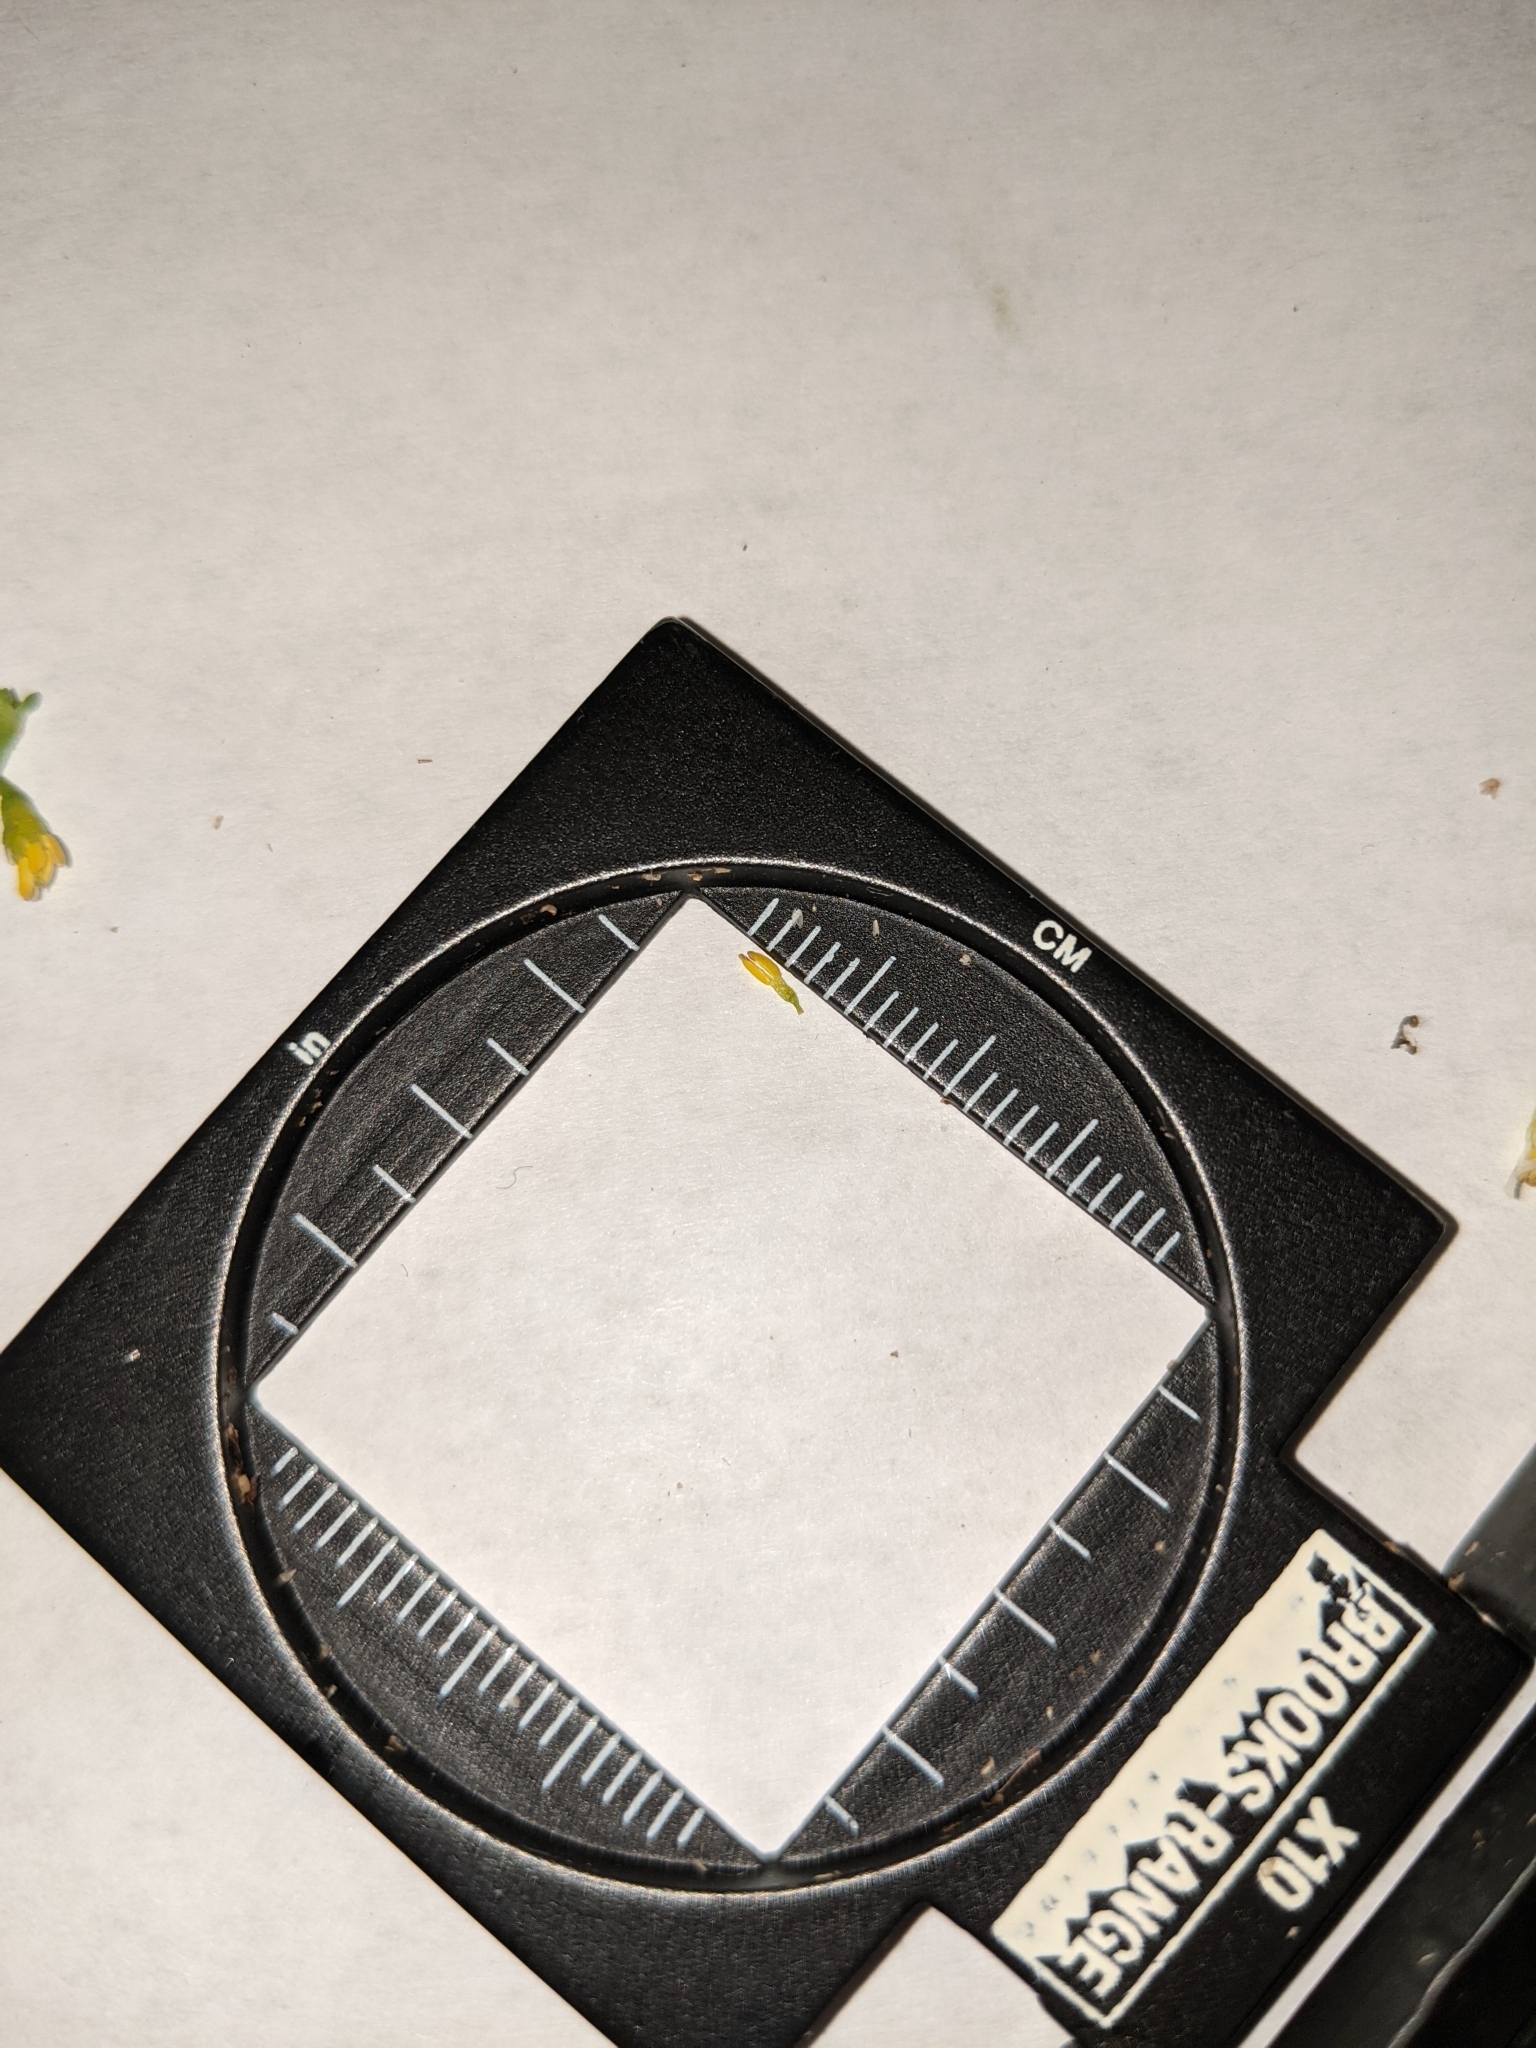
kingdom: Plantae
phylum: Tracheophyta
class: Magnoliopsida
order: Solanales
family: Solanaceae
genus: Solanum
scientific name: Solanum emulans
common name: Eastern black nightshade
